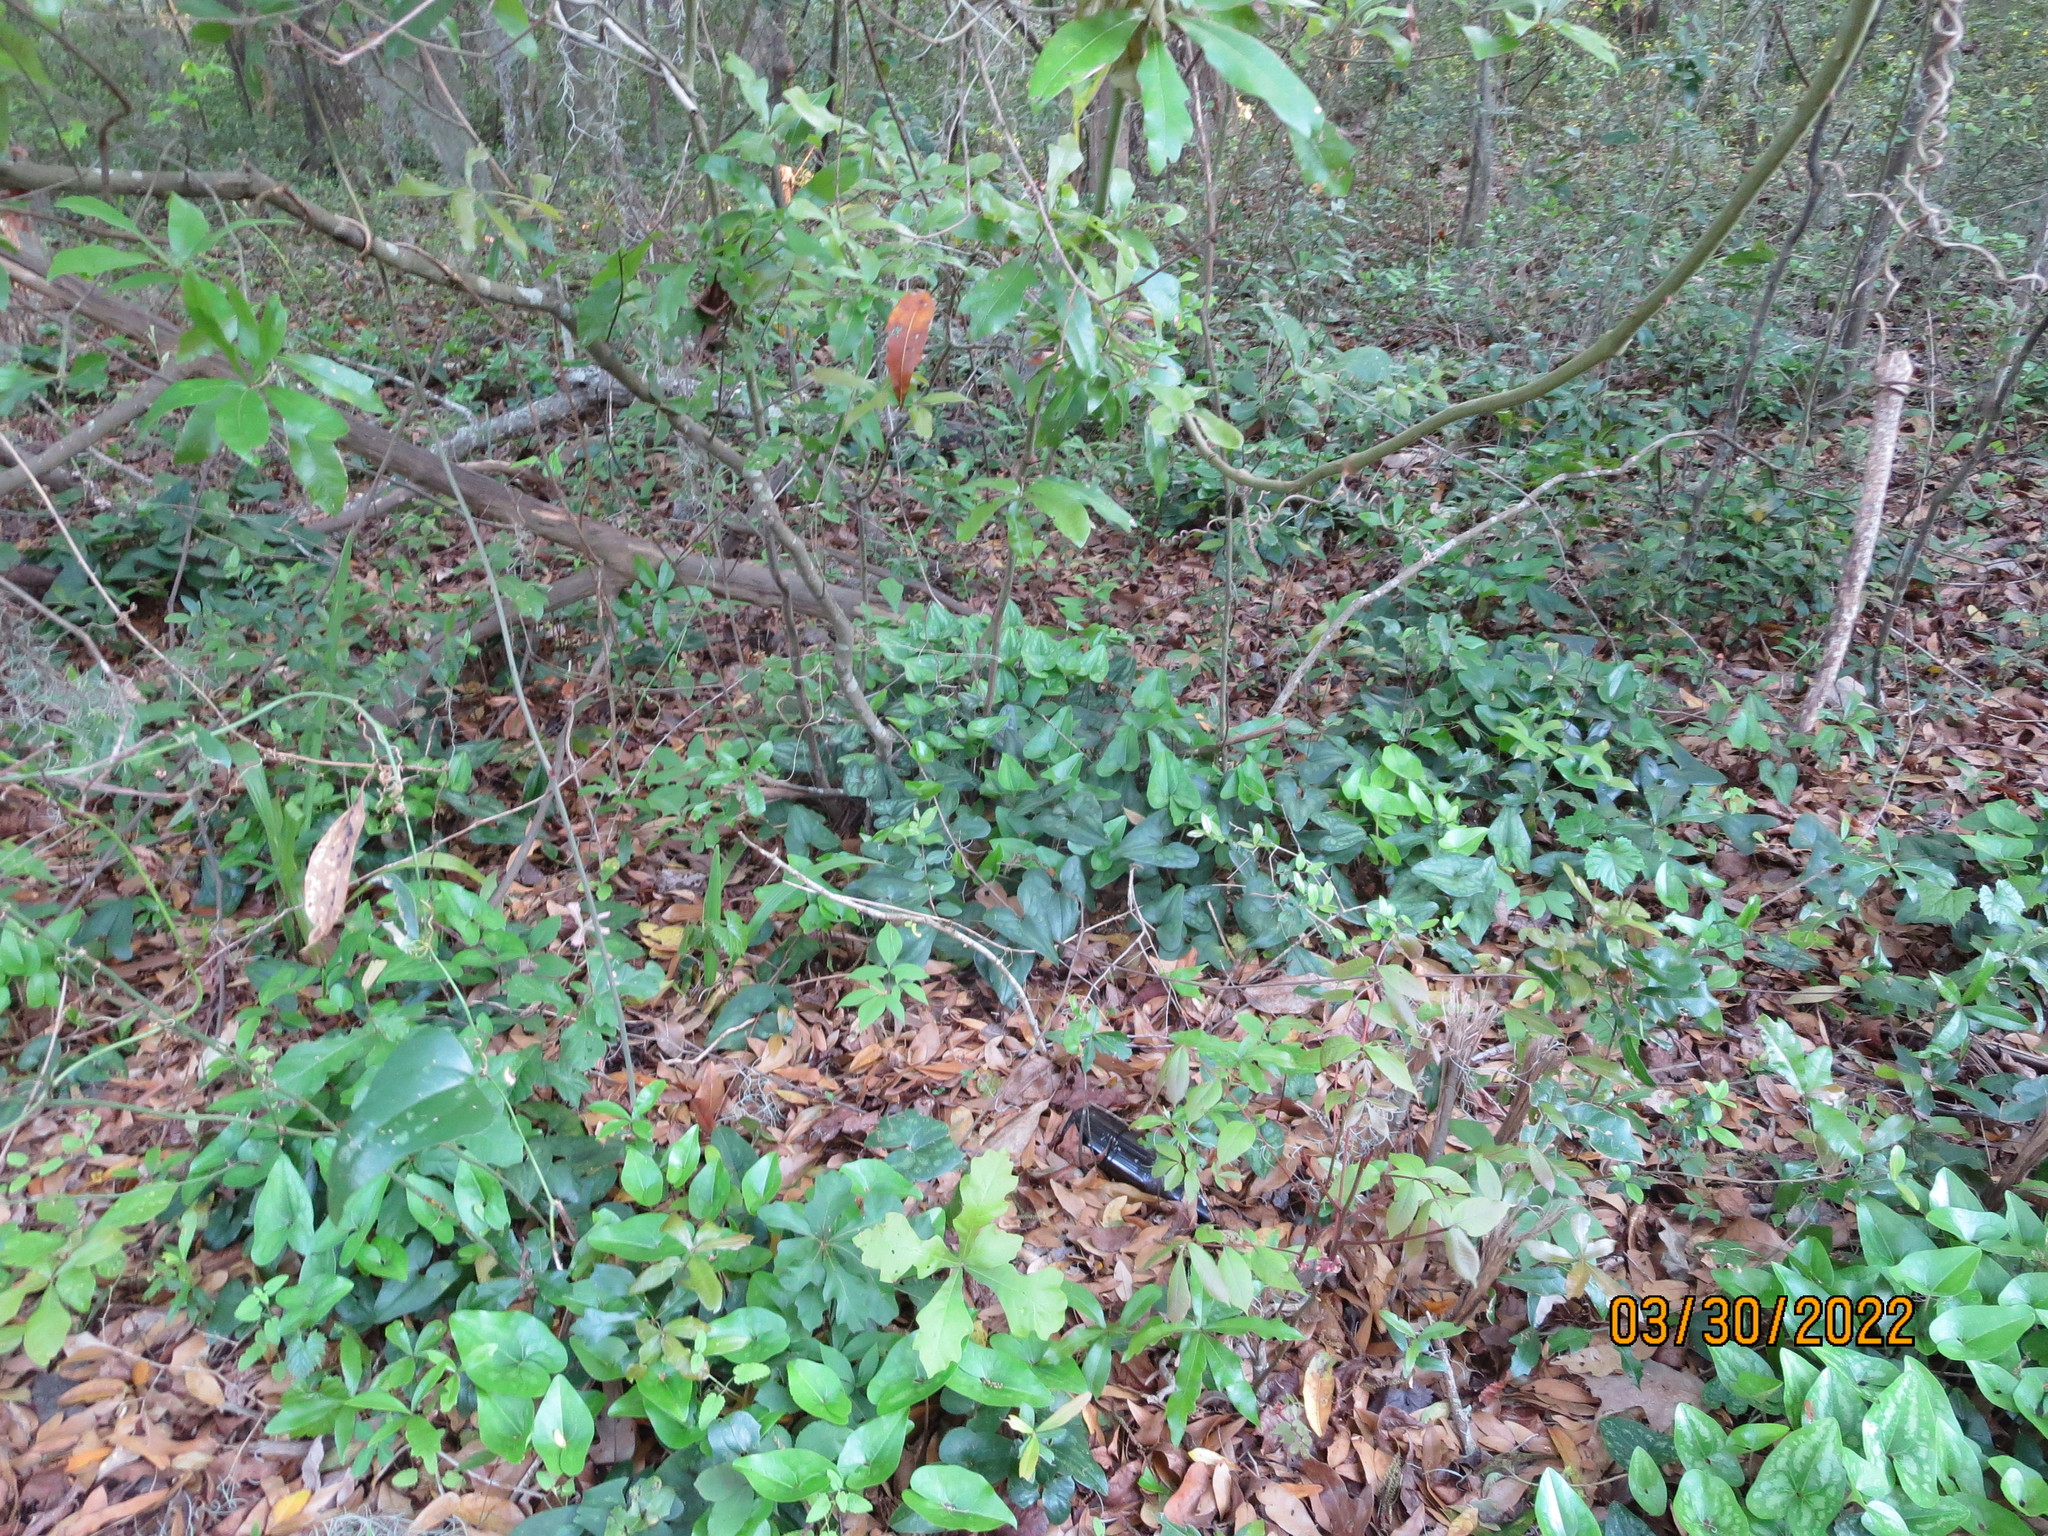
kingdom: Plantae
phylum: Tracheophyta
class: Magnoliopsida
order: Piperales
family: Aristolochiaceae
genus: Hexastylis
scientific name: Hexastylis arifolia
